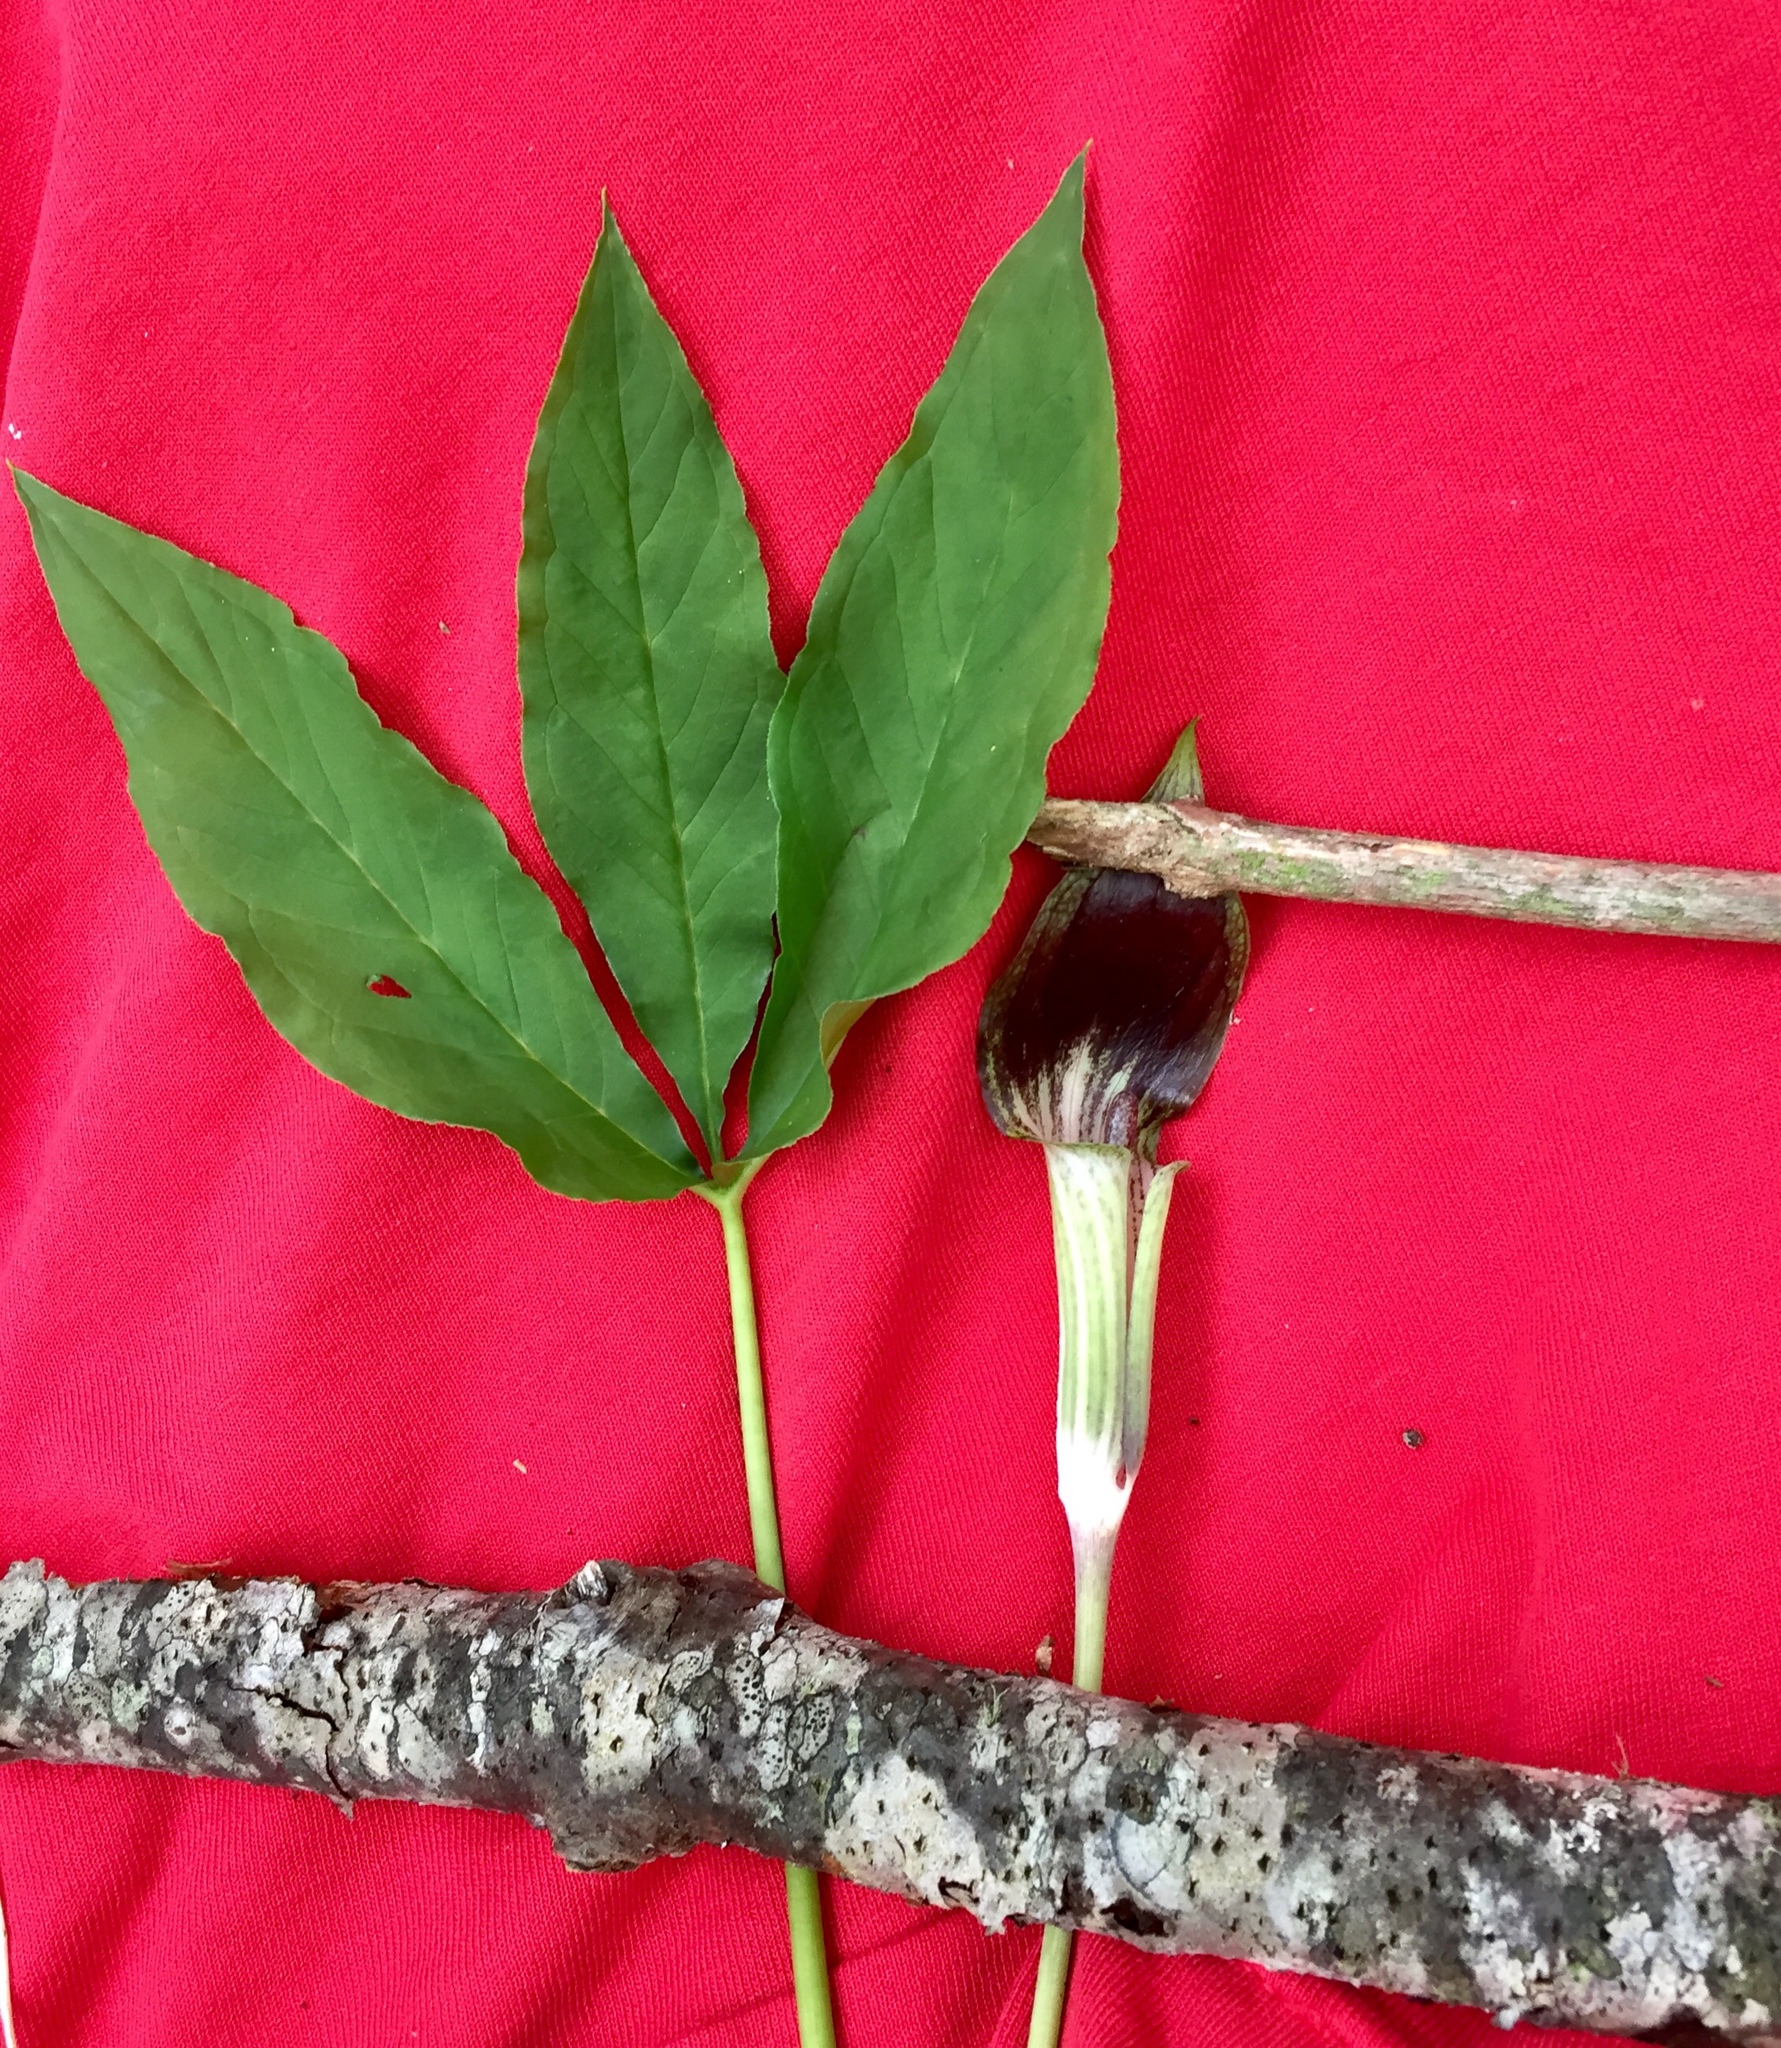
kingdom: Plantae
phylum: Tracheophyta
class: Liliopsida
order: Alismatales
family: Araceae
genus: Arisaema
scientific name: Arisaema triphyllum
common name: Jack-in-the-pulpit
